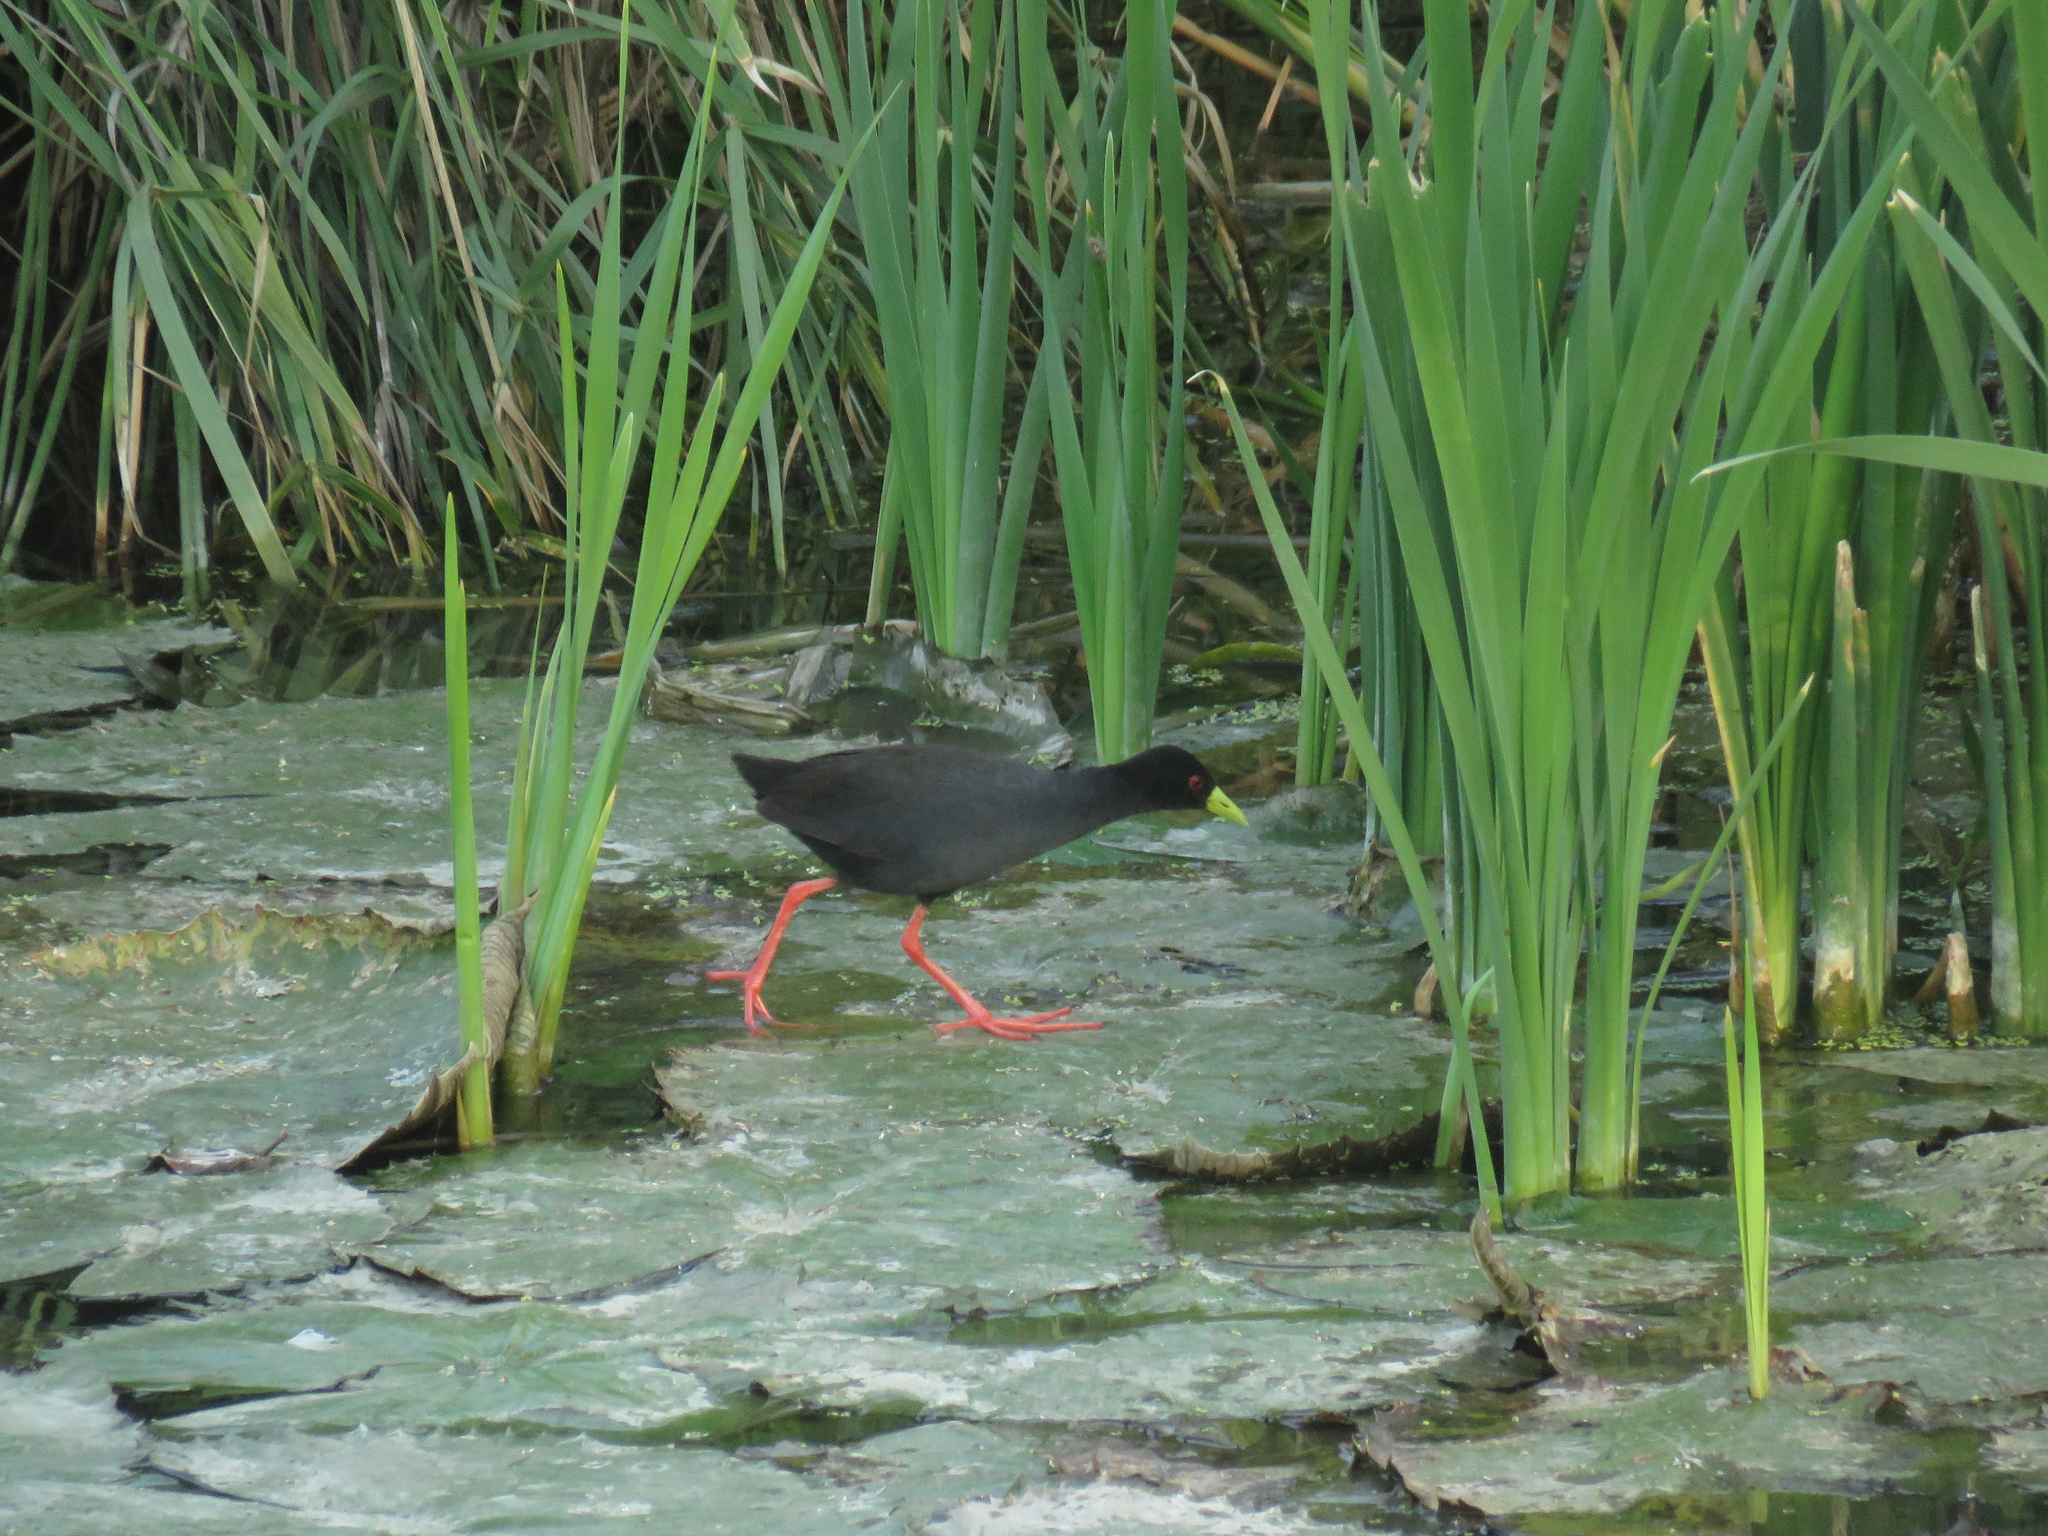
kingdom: Animalia
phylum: Chordata
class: Aves
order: Gruiformes
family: Rallidae
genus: Amaurornis
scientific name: Amaurornis flavirostra
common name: Black crake
